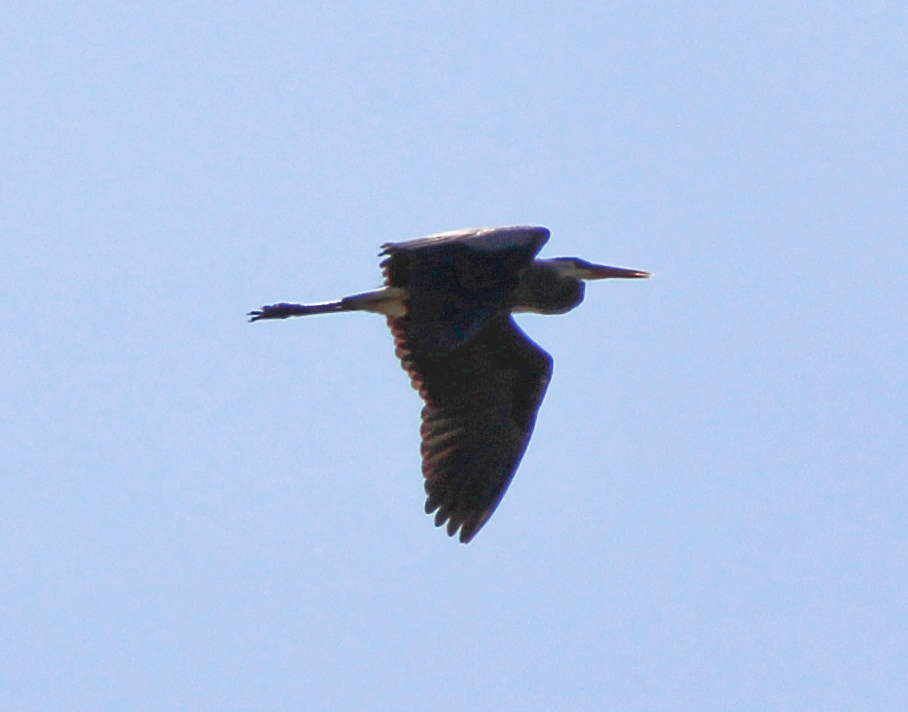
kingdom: Animalia
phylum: Chordata
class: Aves
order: Pelecaniformes
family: Ardeidae
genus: Ardea
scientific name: Ardea herodias
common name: Great blue heron
